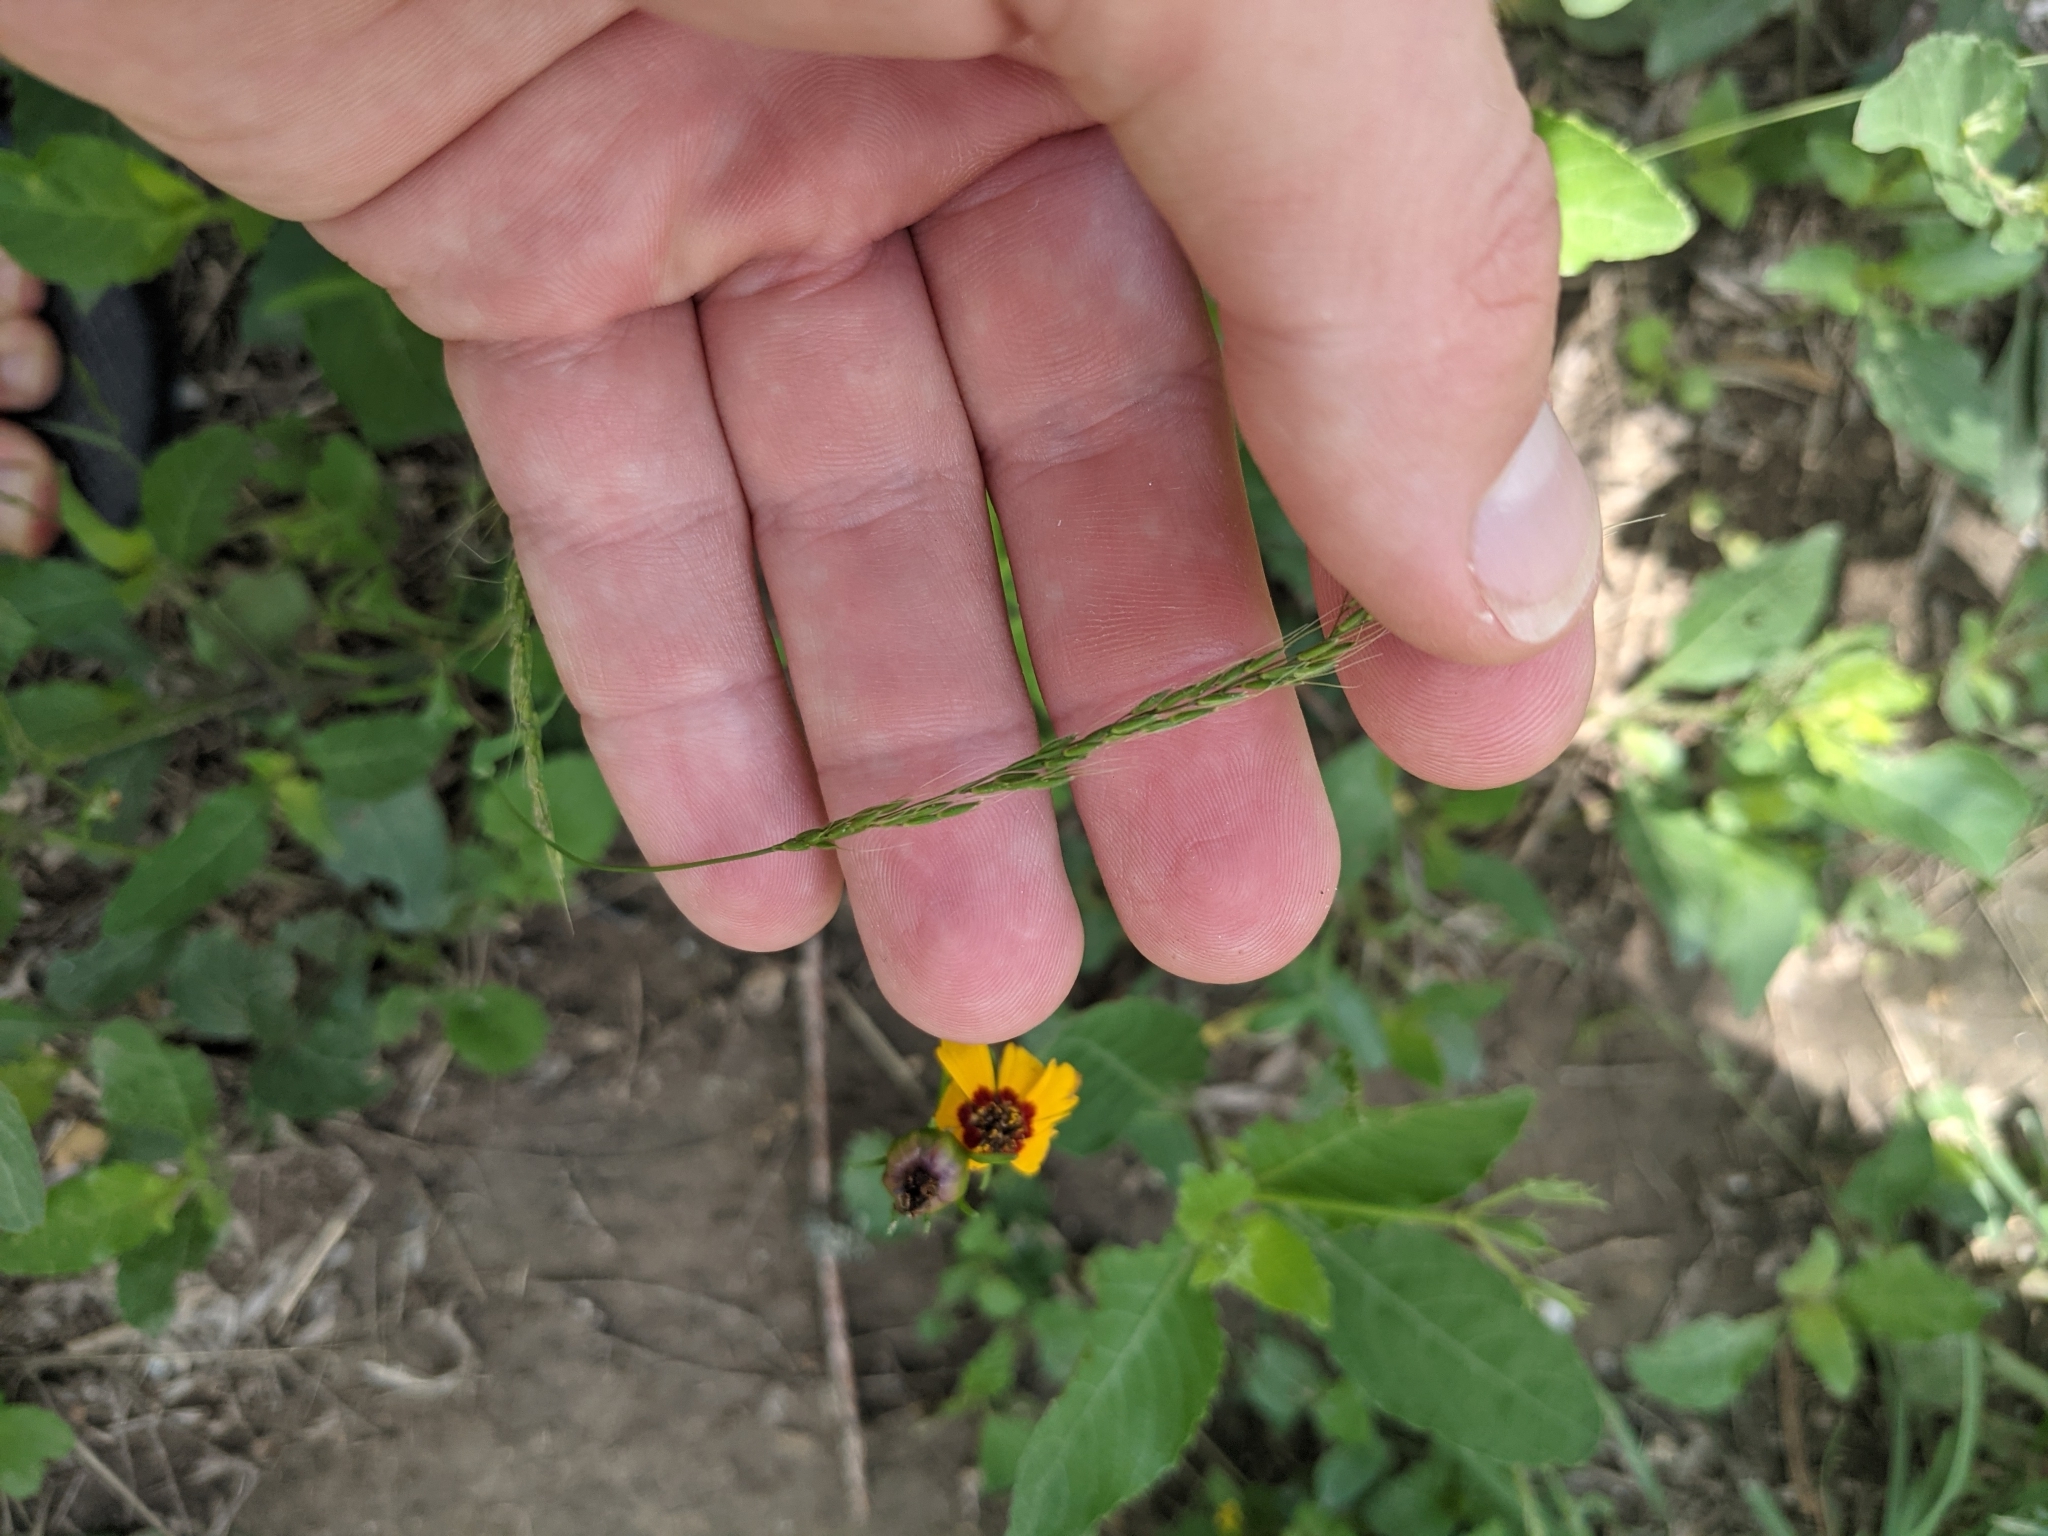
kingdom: Plantae
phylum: Tracheophyta
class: Liliopsida
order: Poales
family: Poaceae
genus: Limnodea
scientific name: Limnodea arkansana
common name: Ozark-grass
